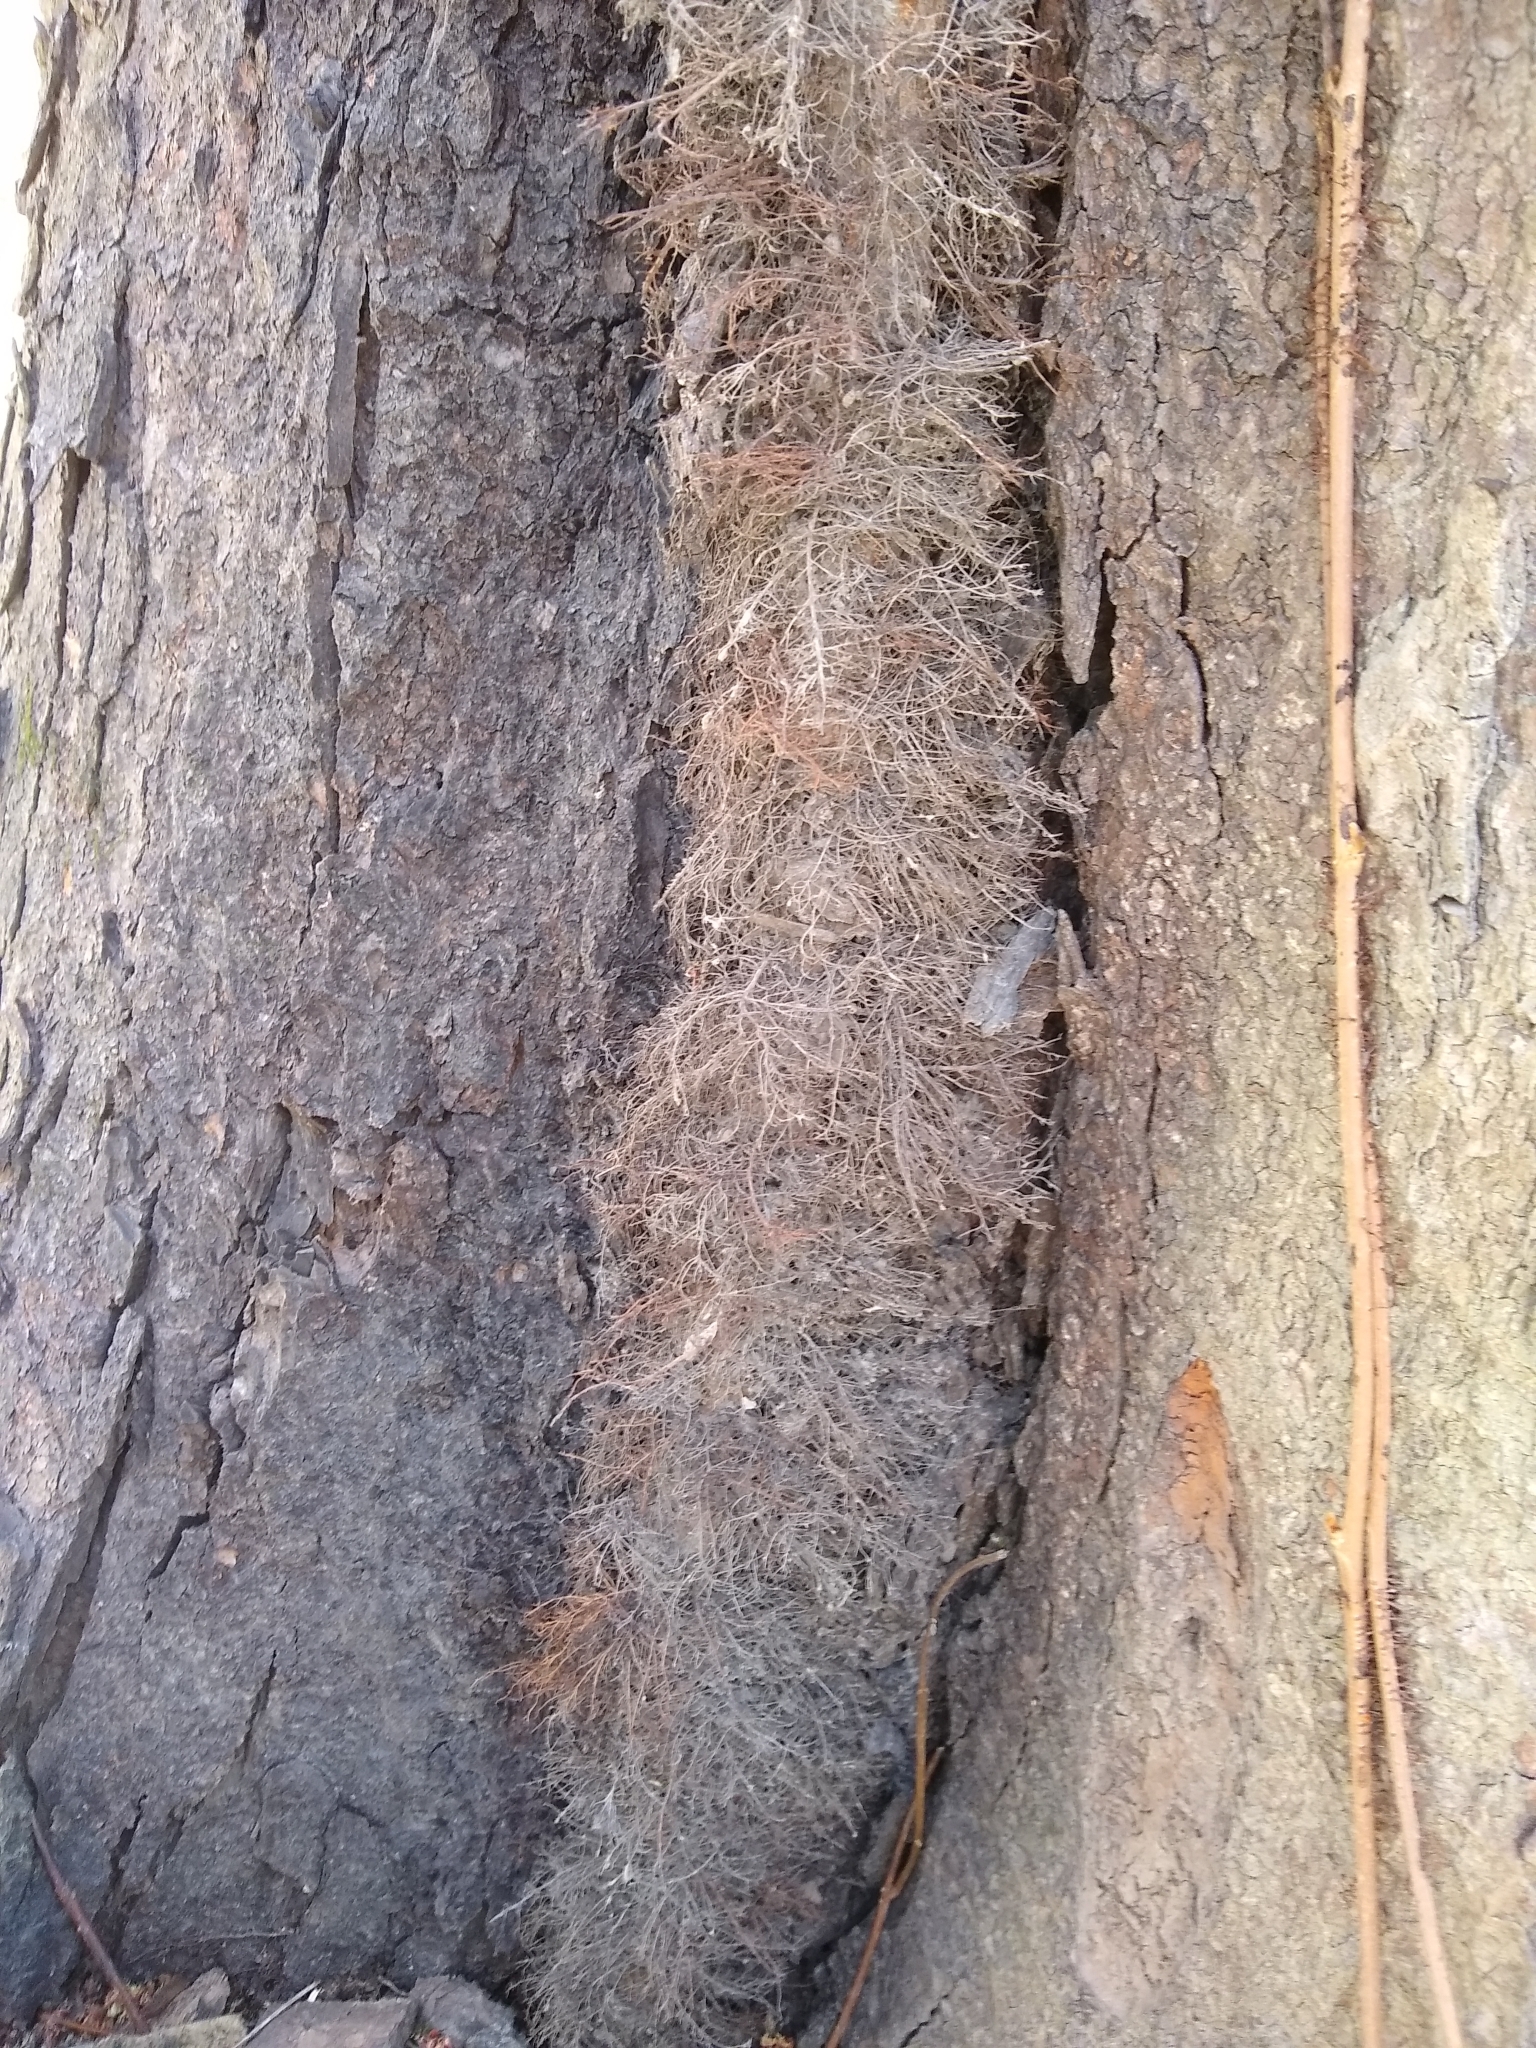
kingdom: Plantae
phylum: Tracheophyta
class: Magnoliopsida
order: Sapindales
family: Anacardiaceae
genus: Toxicodendron
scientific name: Toxicodendron radicans
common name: Poison ivy
